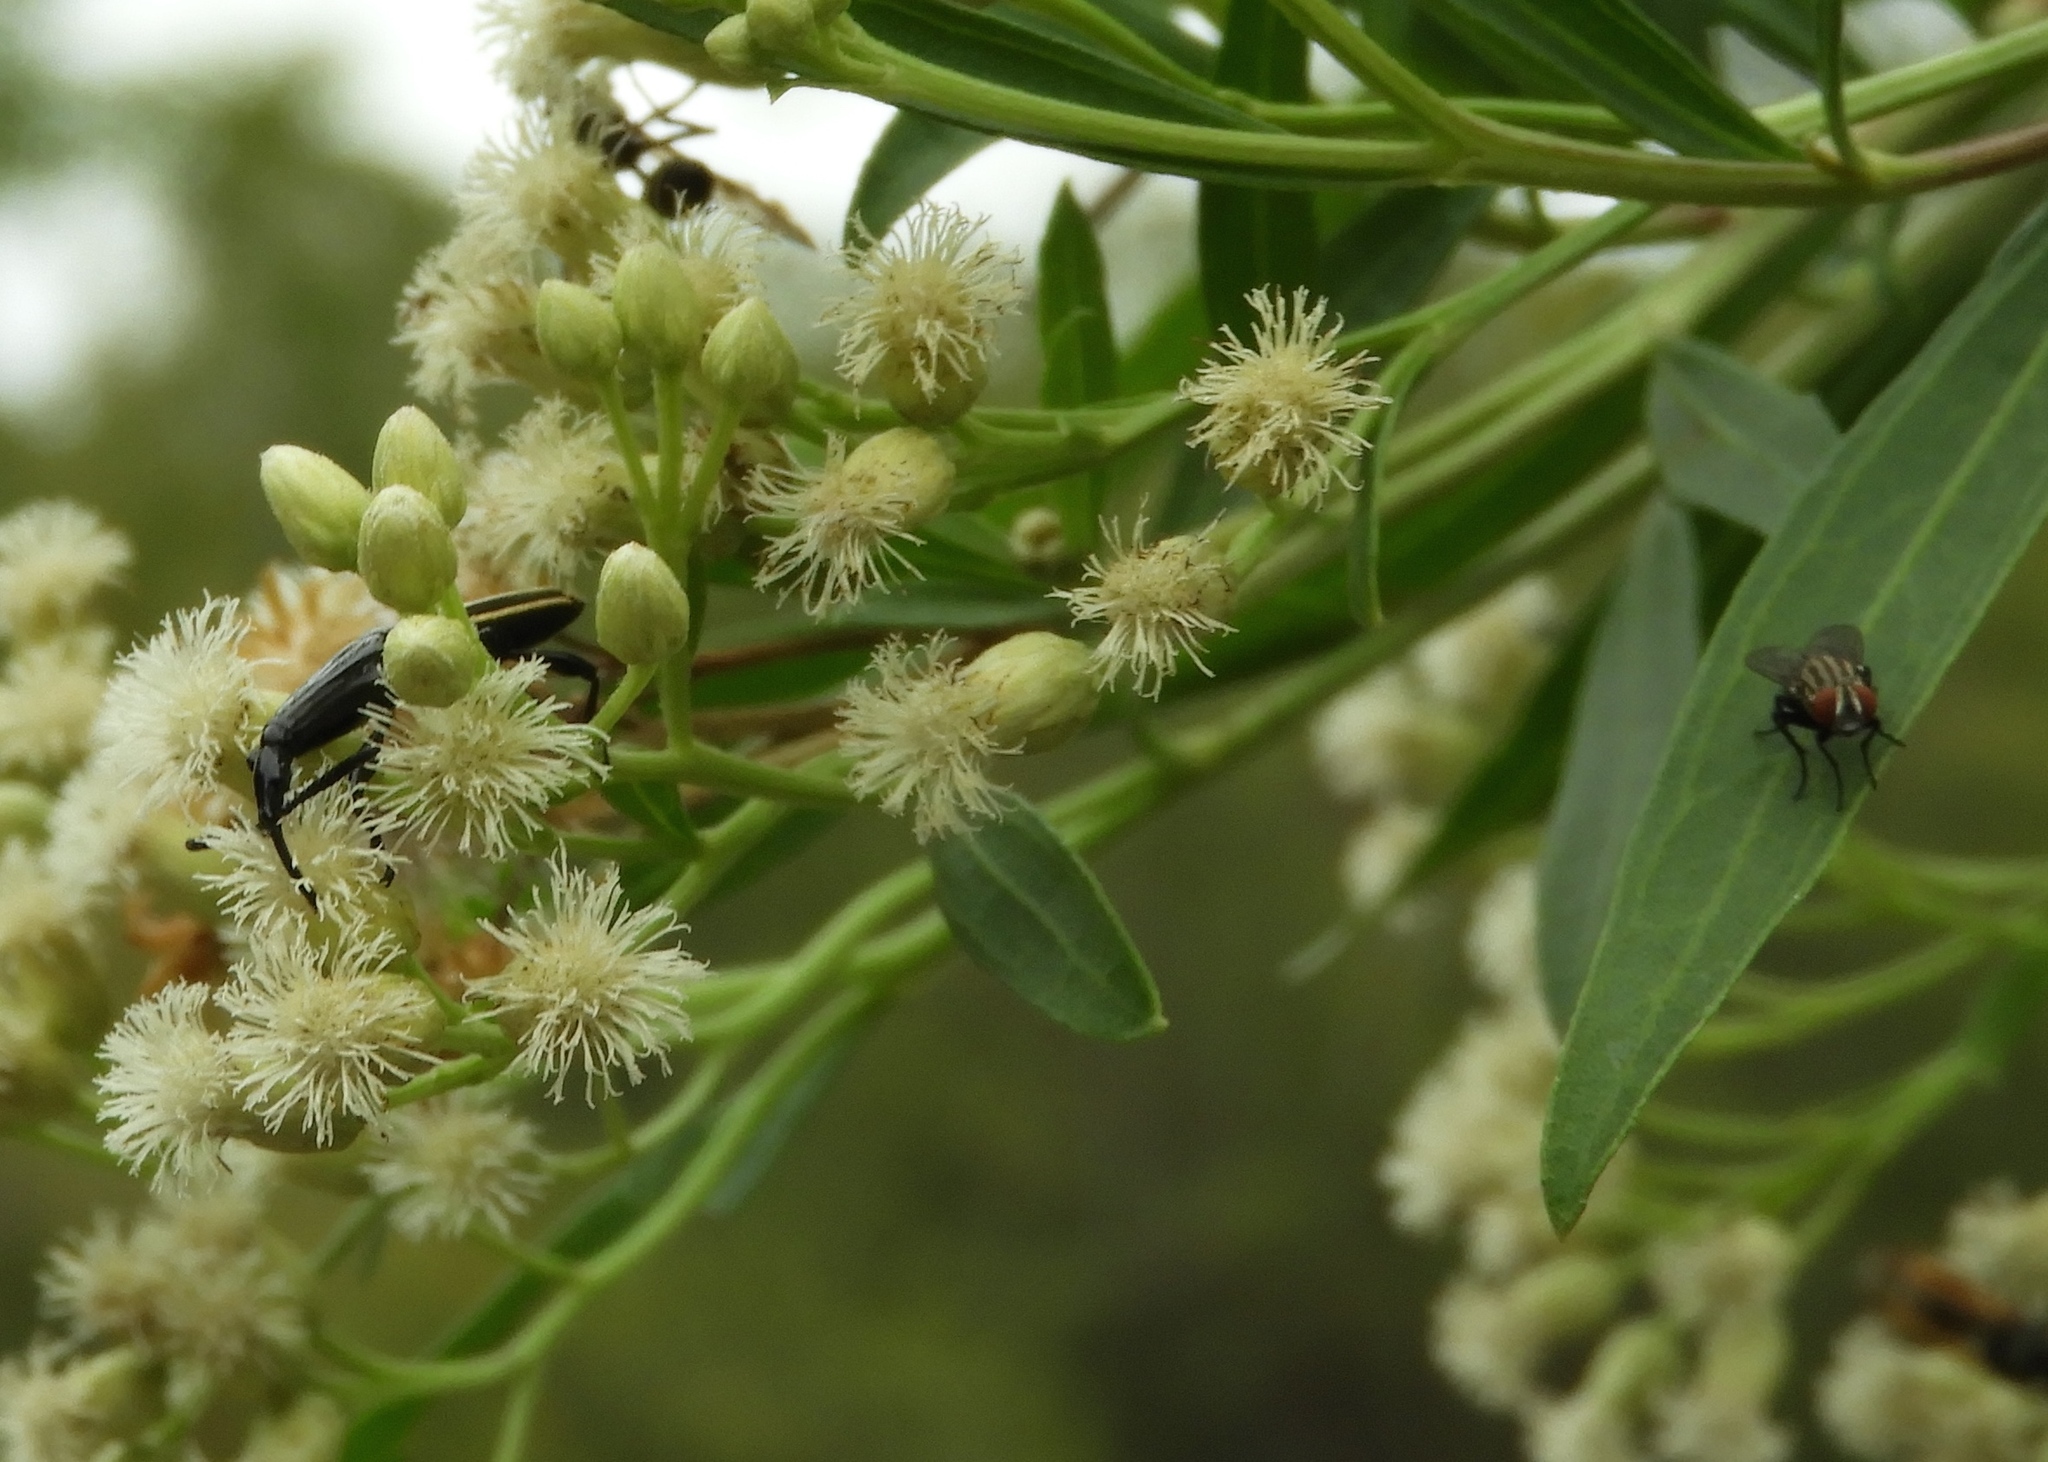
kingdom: Plantae
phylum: Tracheophyta
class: Magnoliopsida
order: Asterales
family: Asteraceae
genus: Baccharis
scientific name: Baccharis salicifolia
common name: Sticky baccharis
